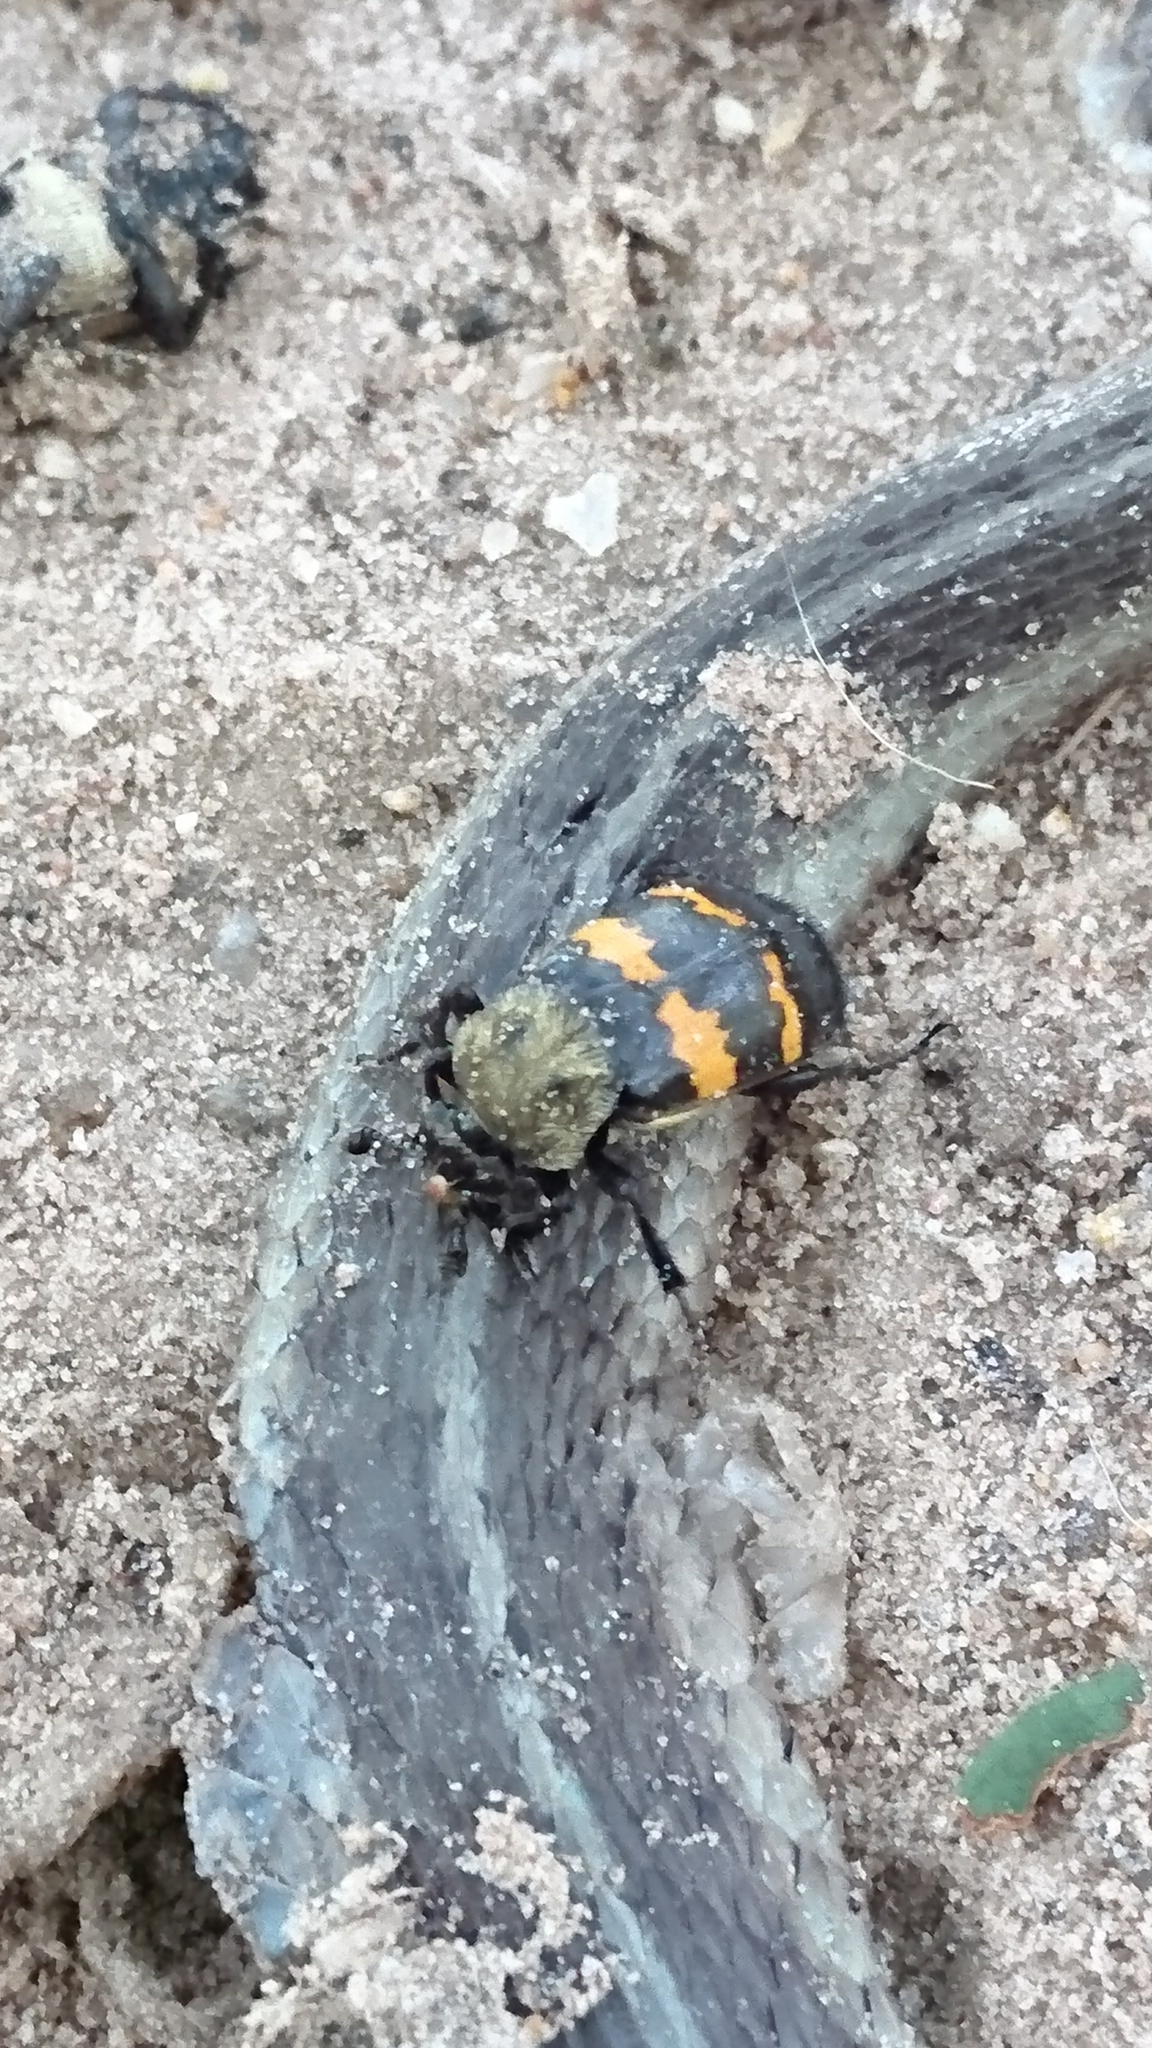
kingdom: Animalia
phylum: Arthropoda
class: Insecta
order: Coleoptera
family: Staphylinidae
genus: Nicrophorus
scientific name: Nicrophorus tomentosus
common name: Tomentose burying beetle
